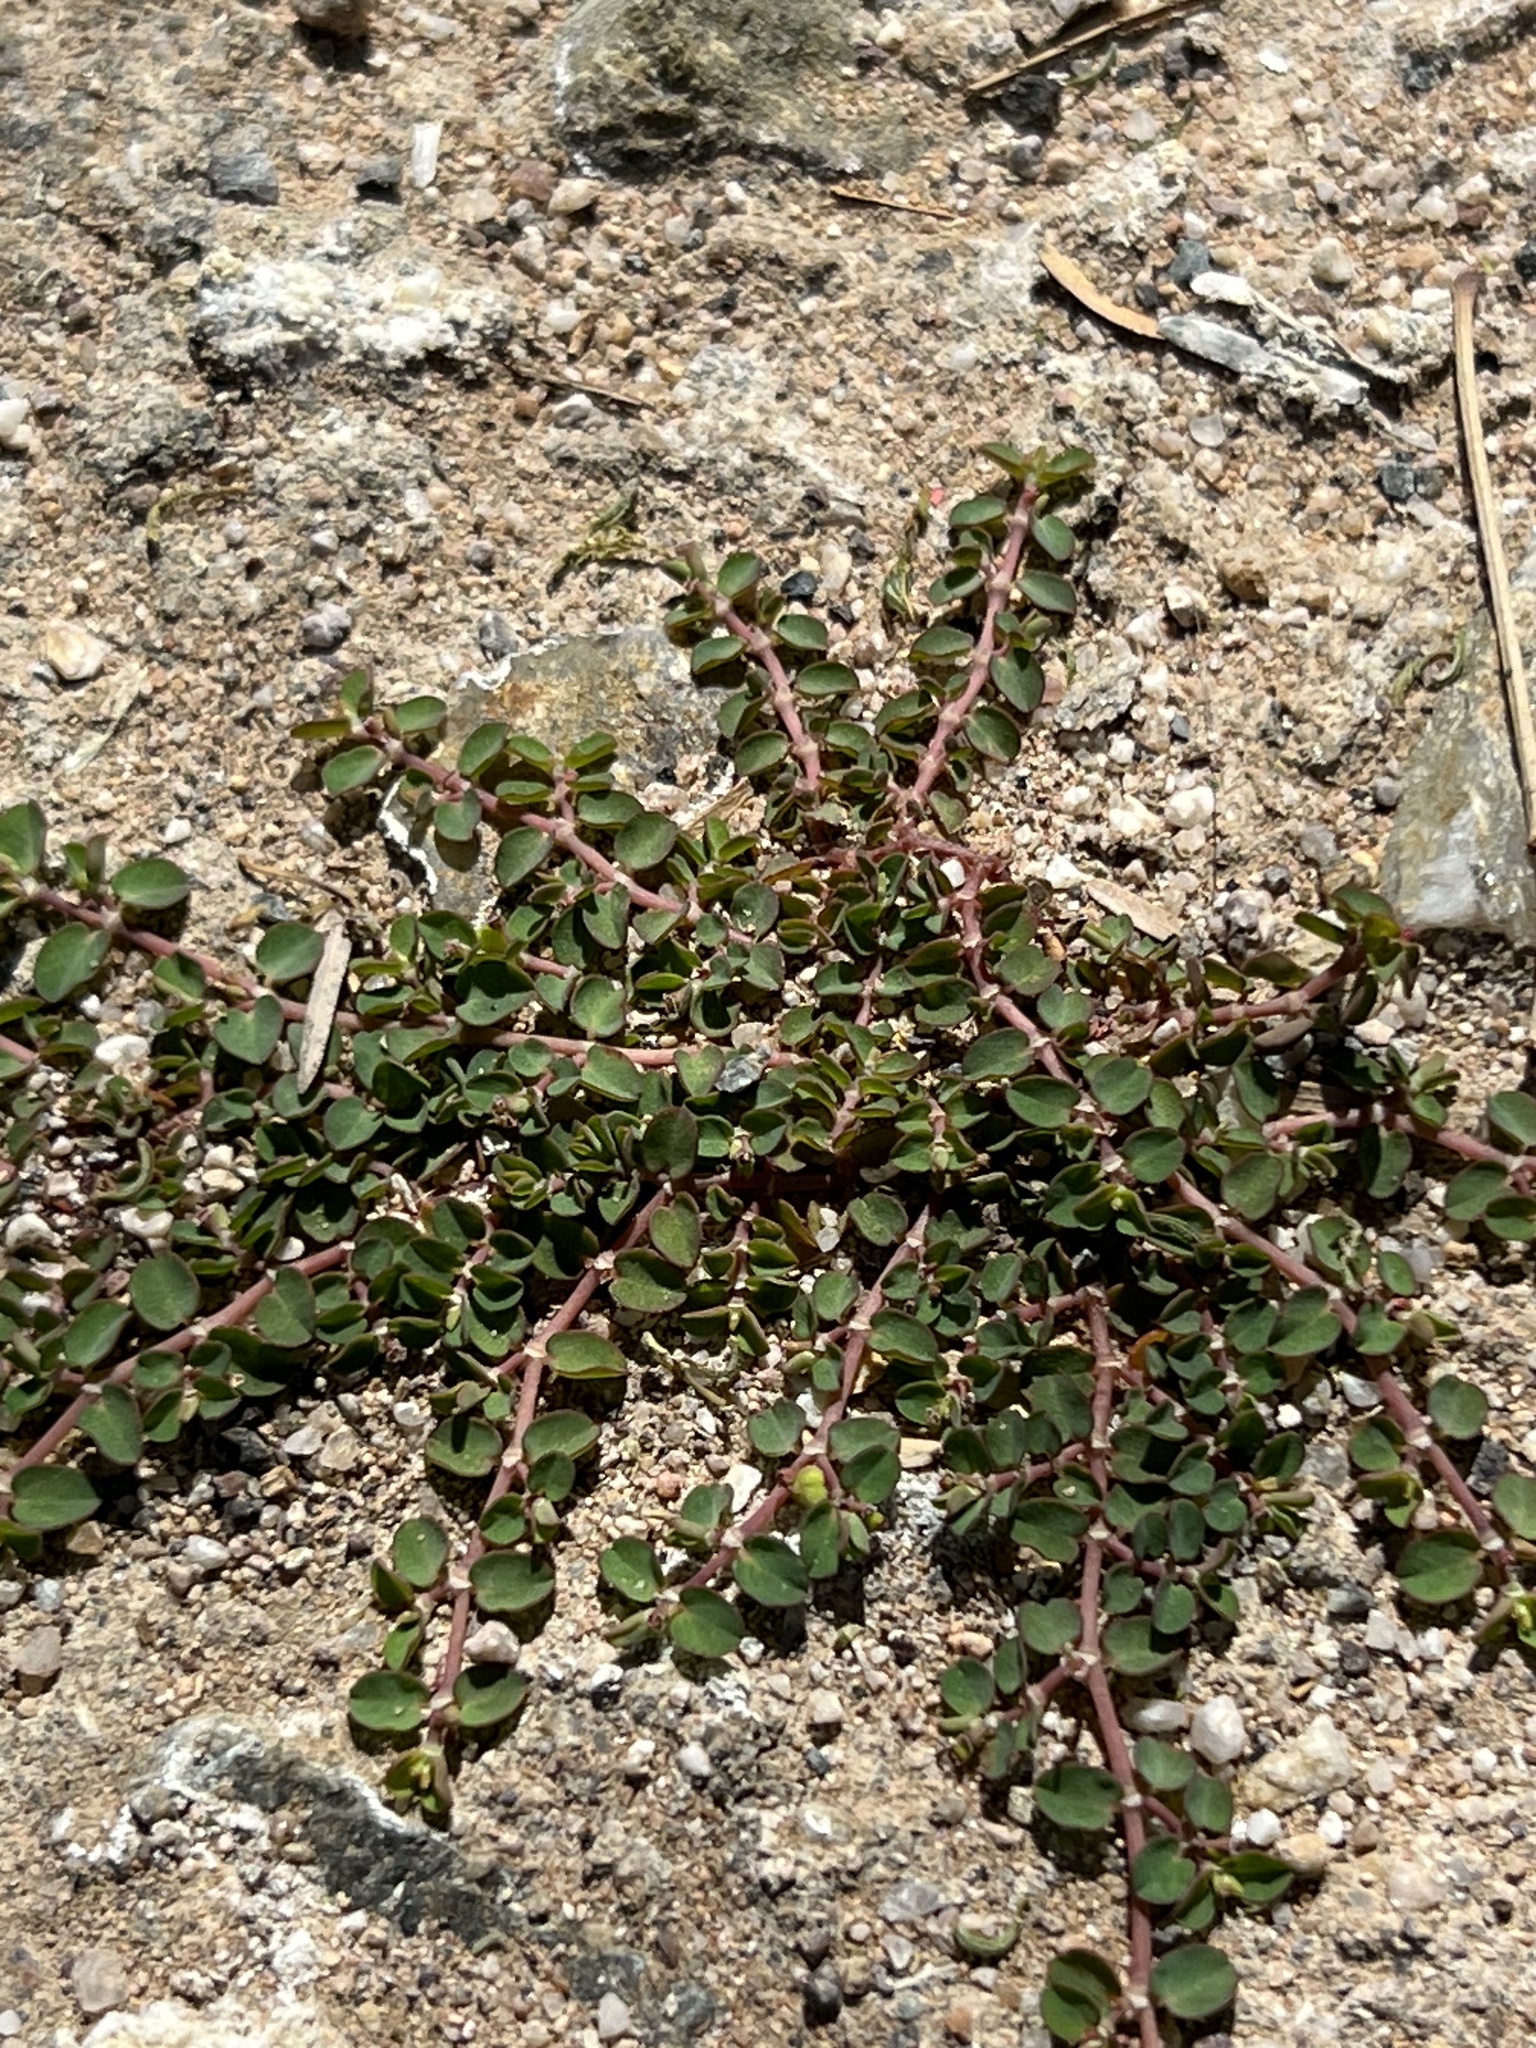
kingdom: Plantae
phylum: Tracheophyta
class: Magnoliopsida
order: Malpighiales
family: Euphorbiaceae
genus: Euphorbia
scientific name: Euphorbia serpens
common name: Matted sandmat
